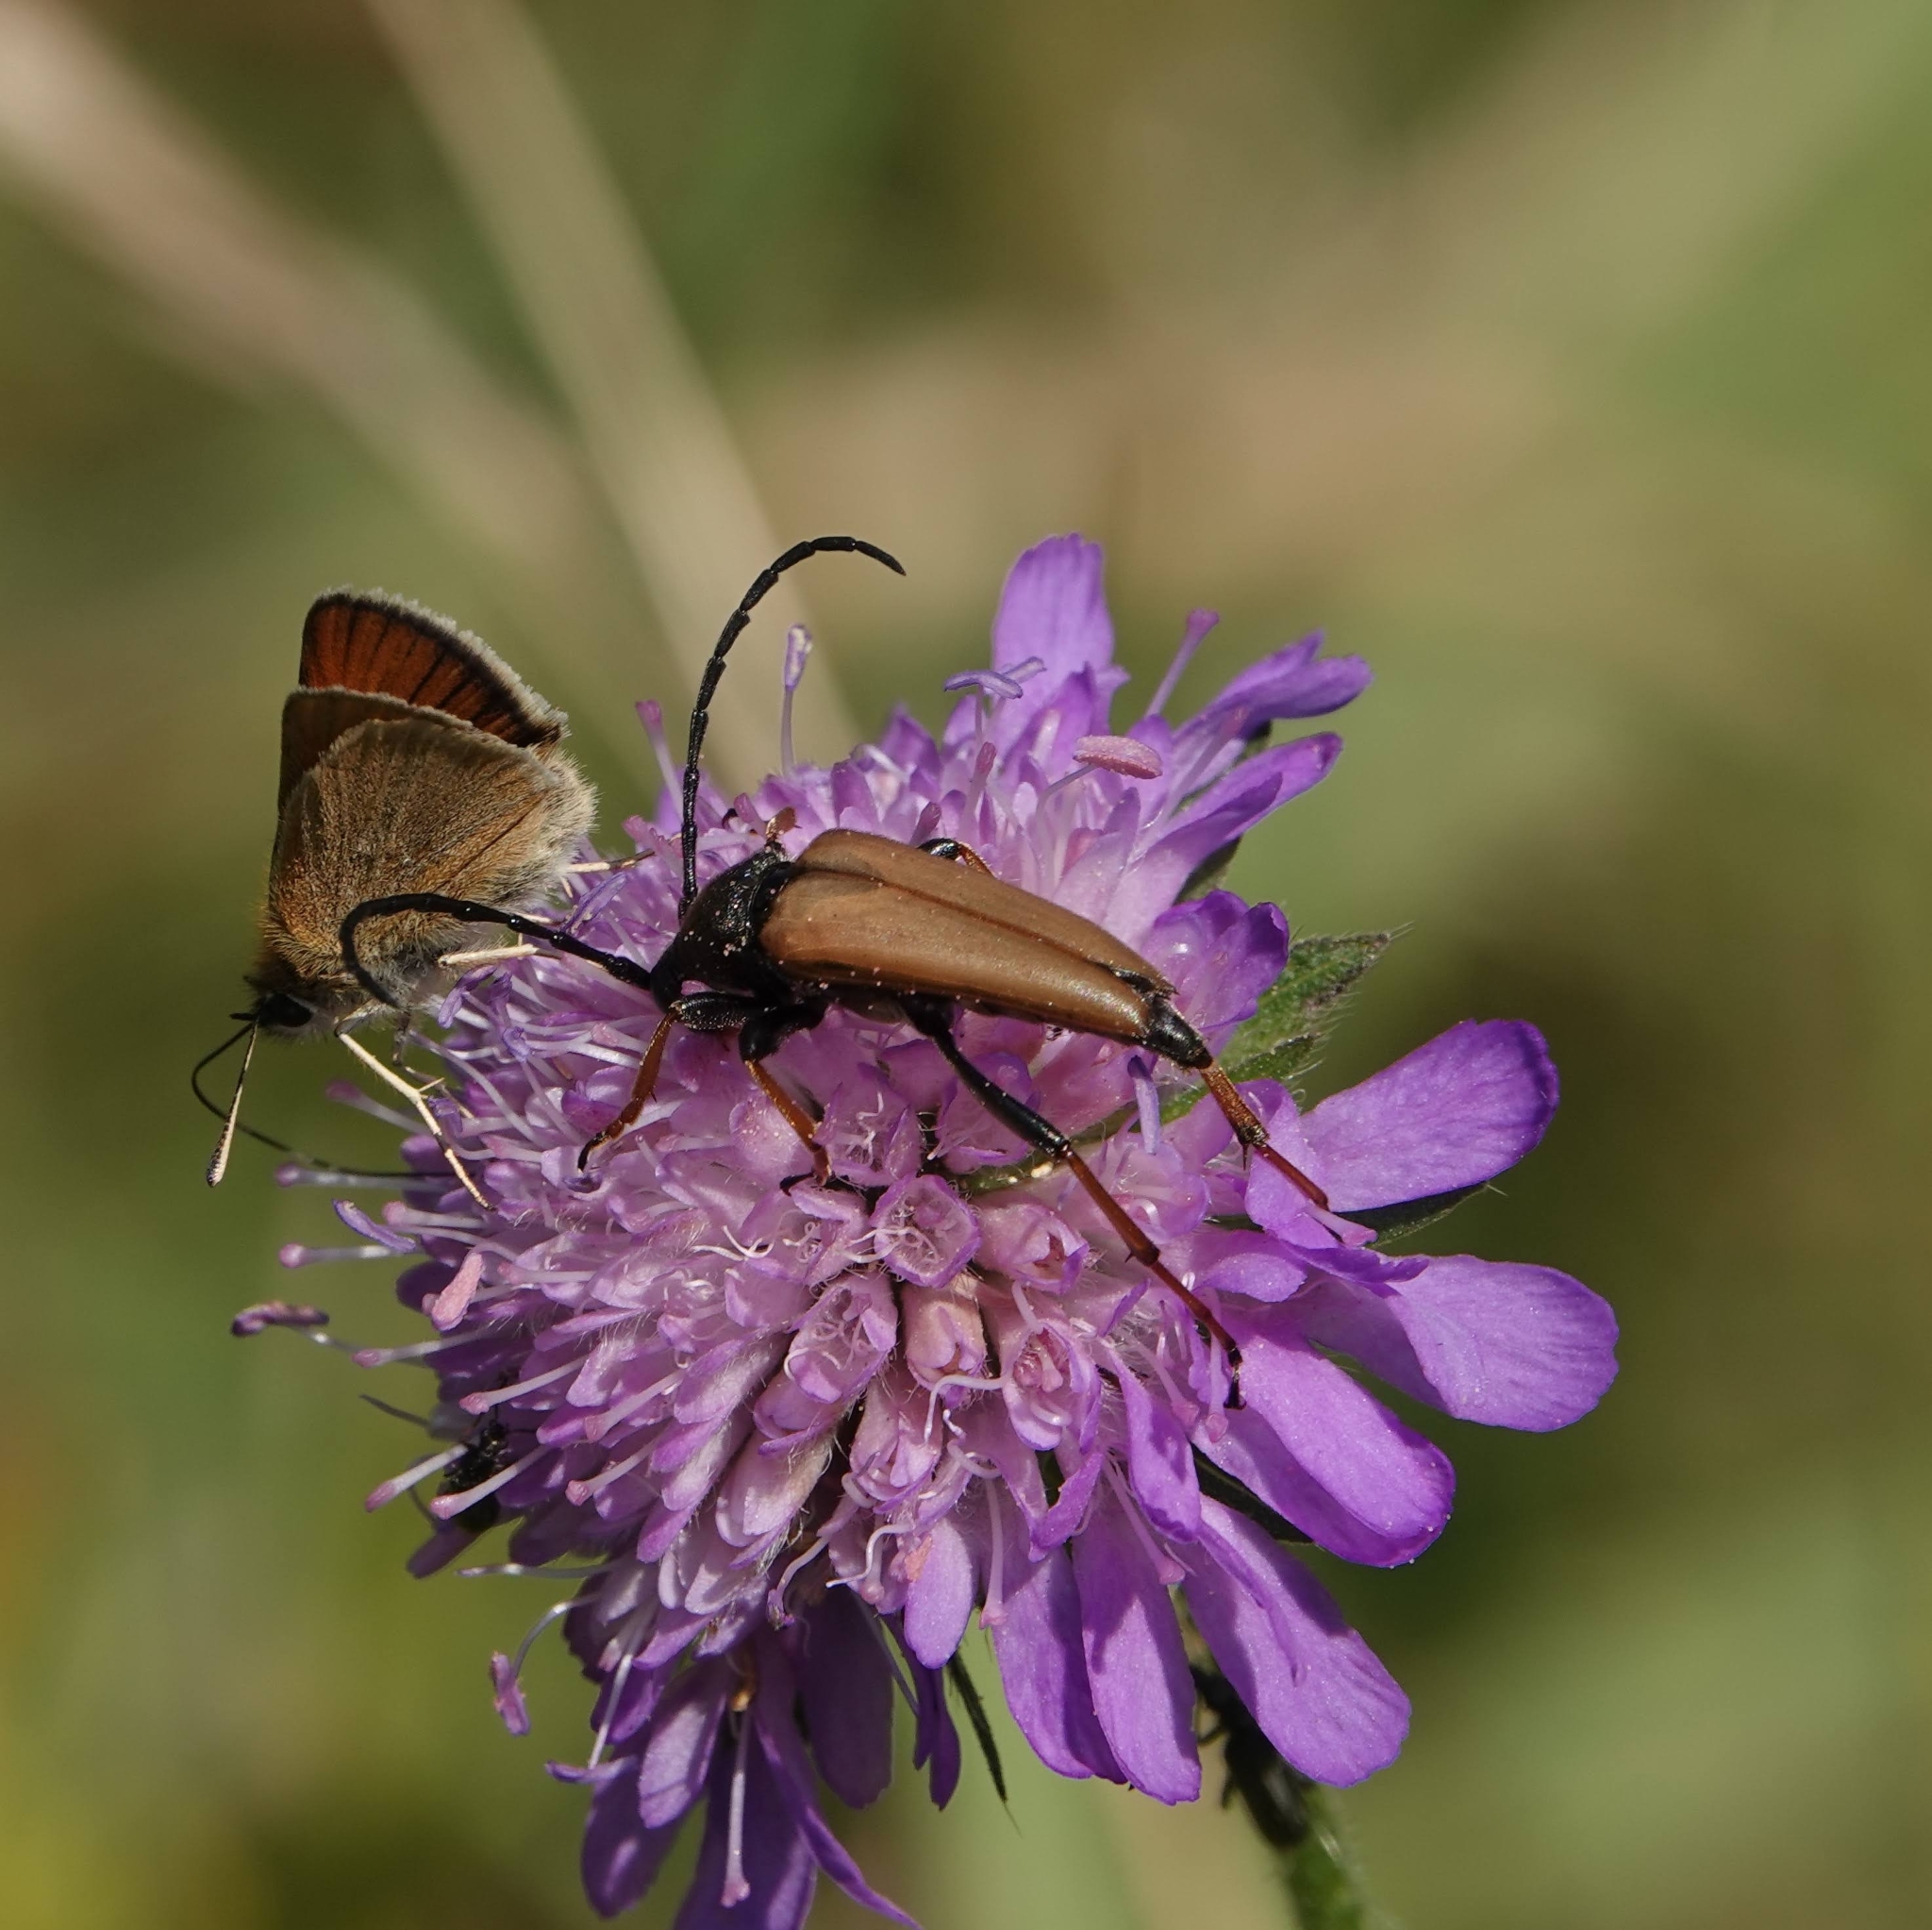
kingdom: Animalia
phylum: Arthropoda
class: Insecta
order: Coleoptera
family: Cerambycidae
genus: Stictoleptura
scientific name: Stictoleptura rubra
